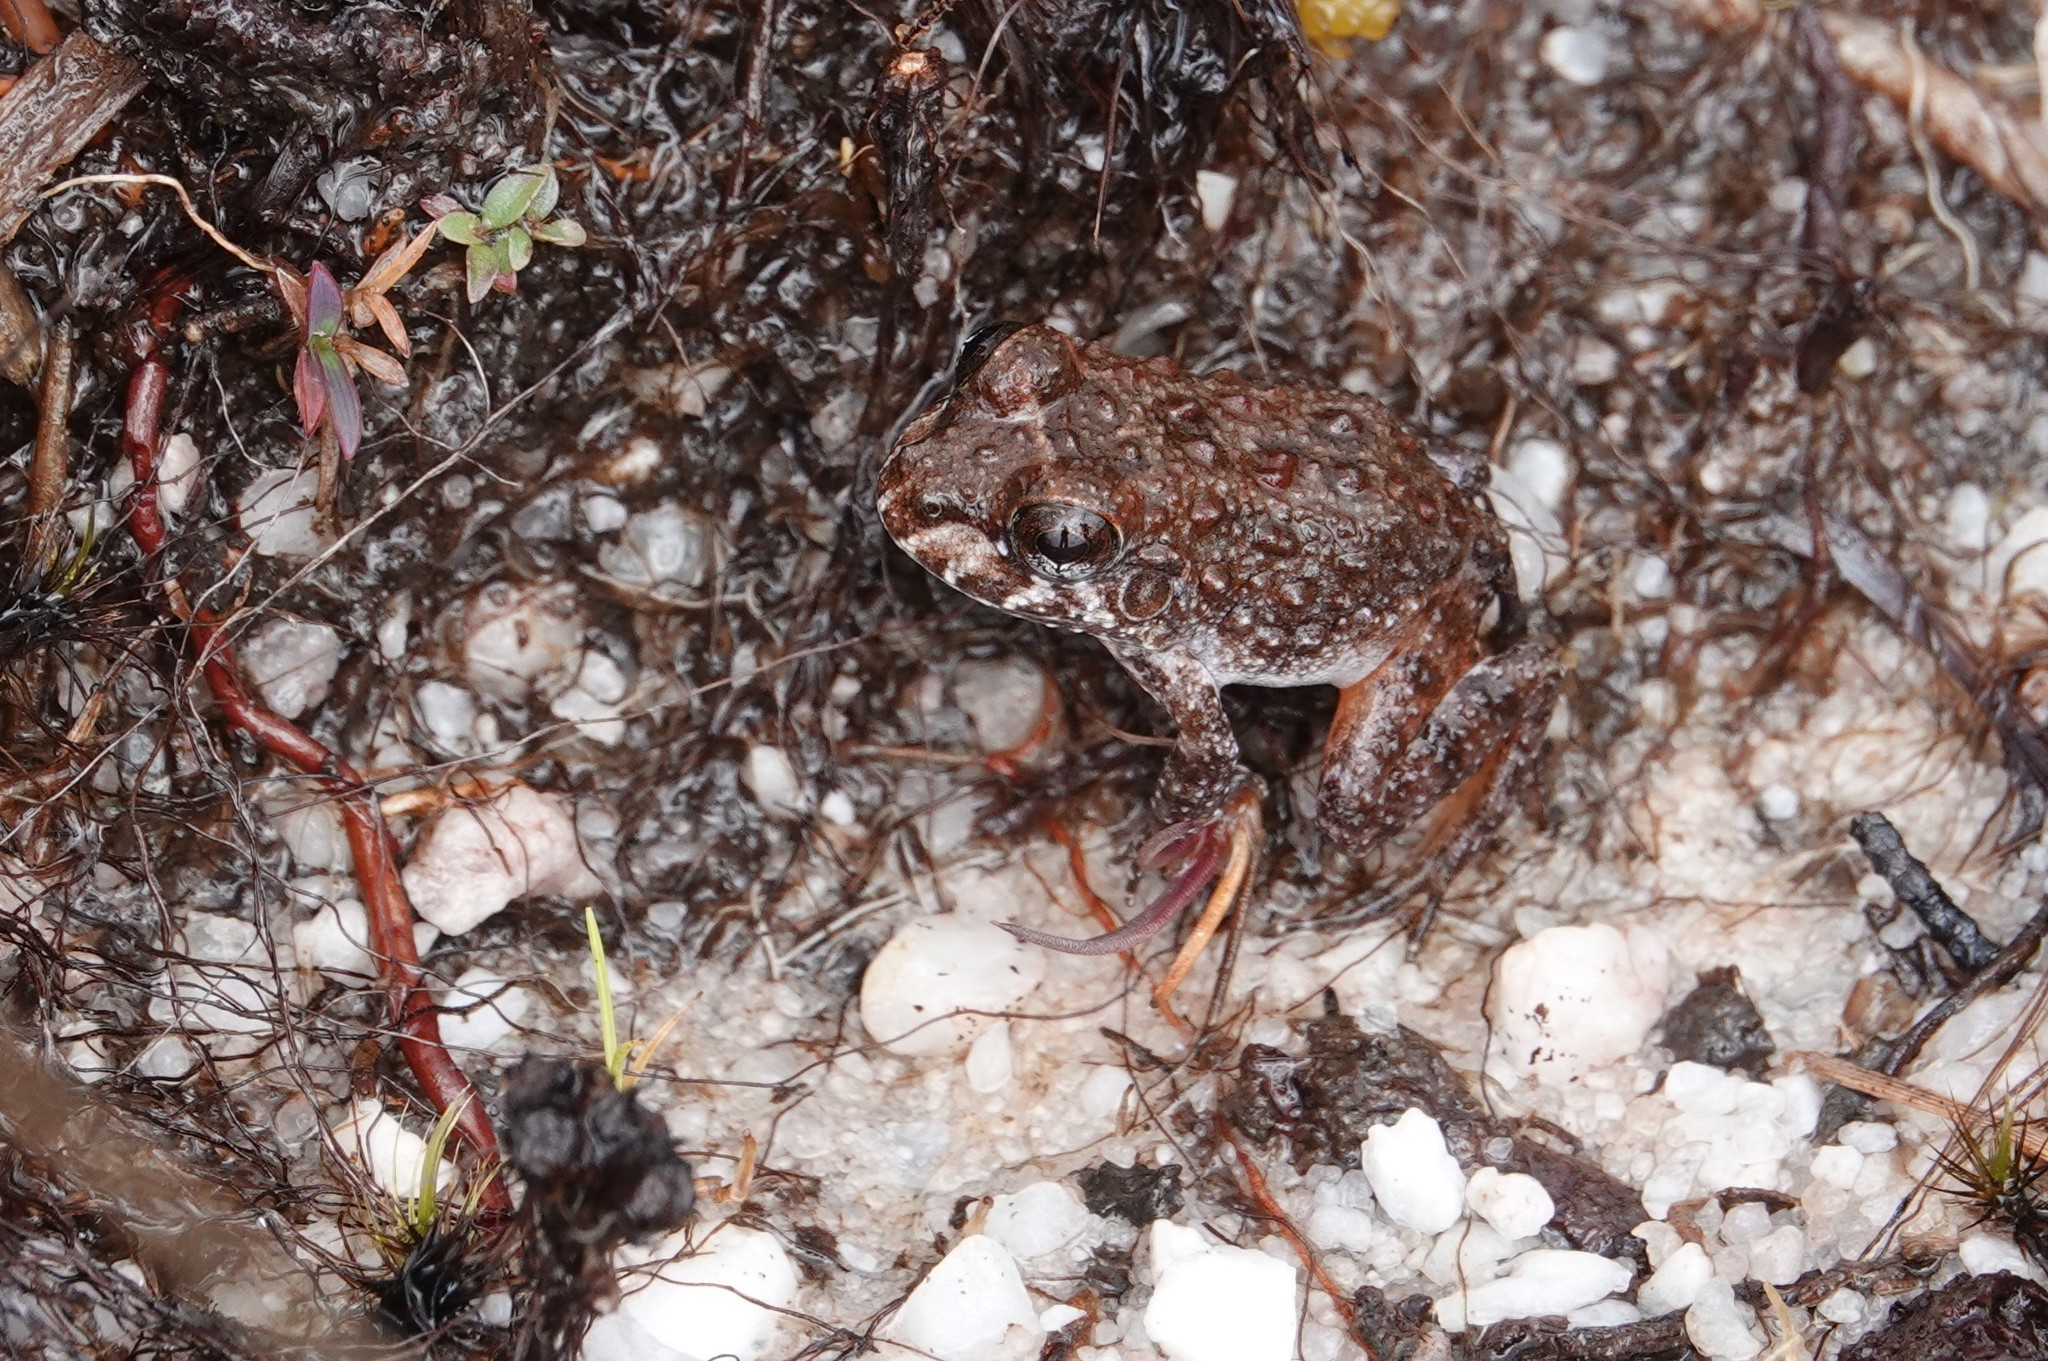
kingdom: Animalia
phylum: Chordata
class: Amphibia
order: Anura
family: Leptodactylidae
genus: Leptodactylus
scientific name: Leptodactylus rugosus
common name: Guyana white-lipped frog
